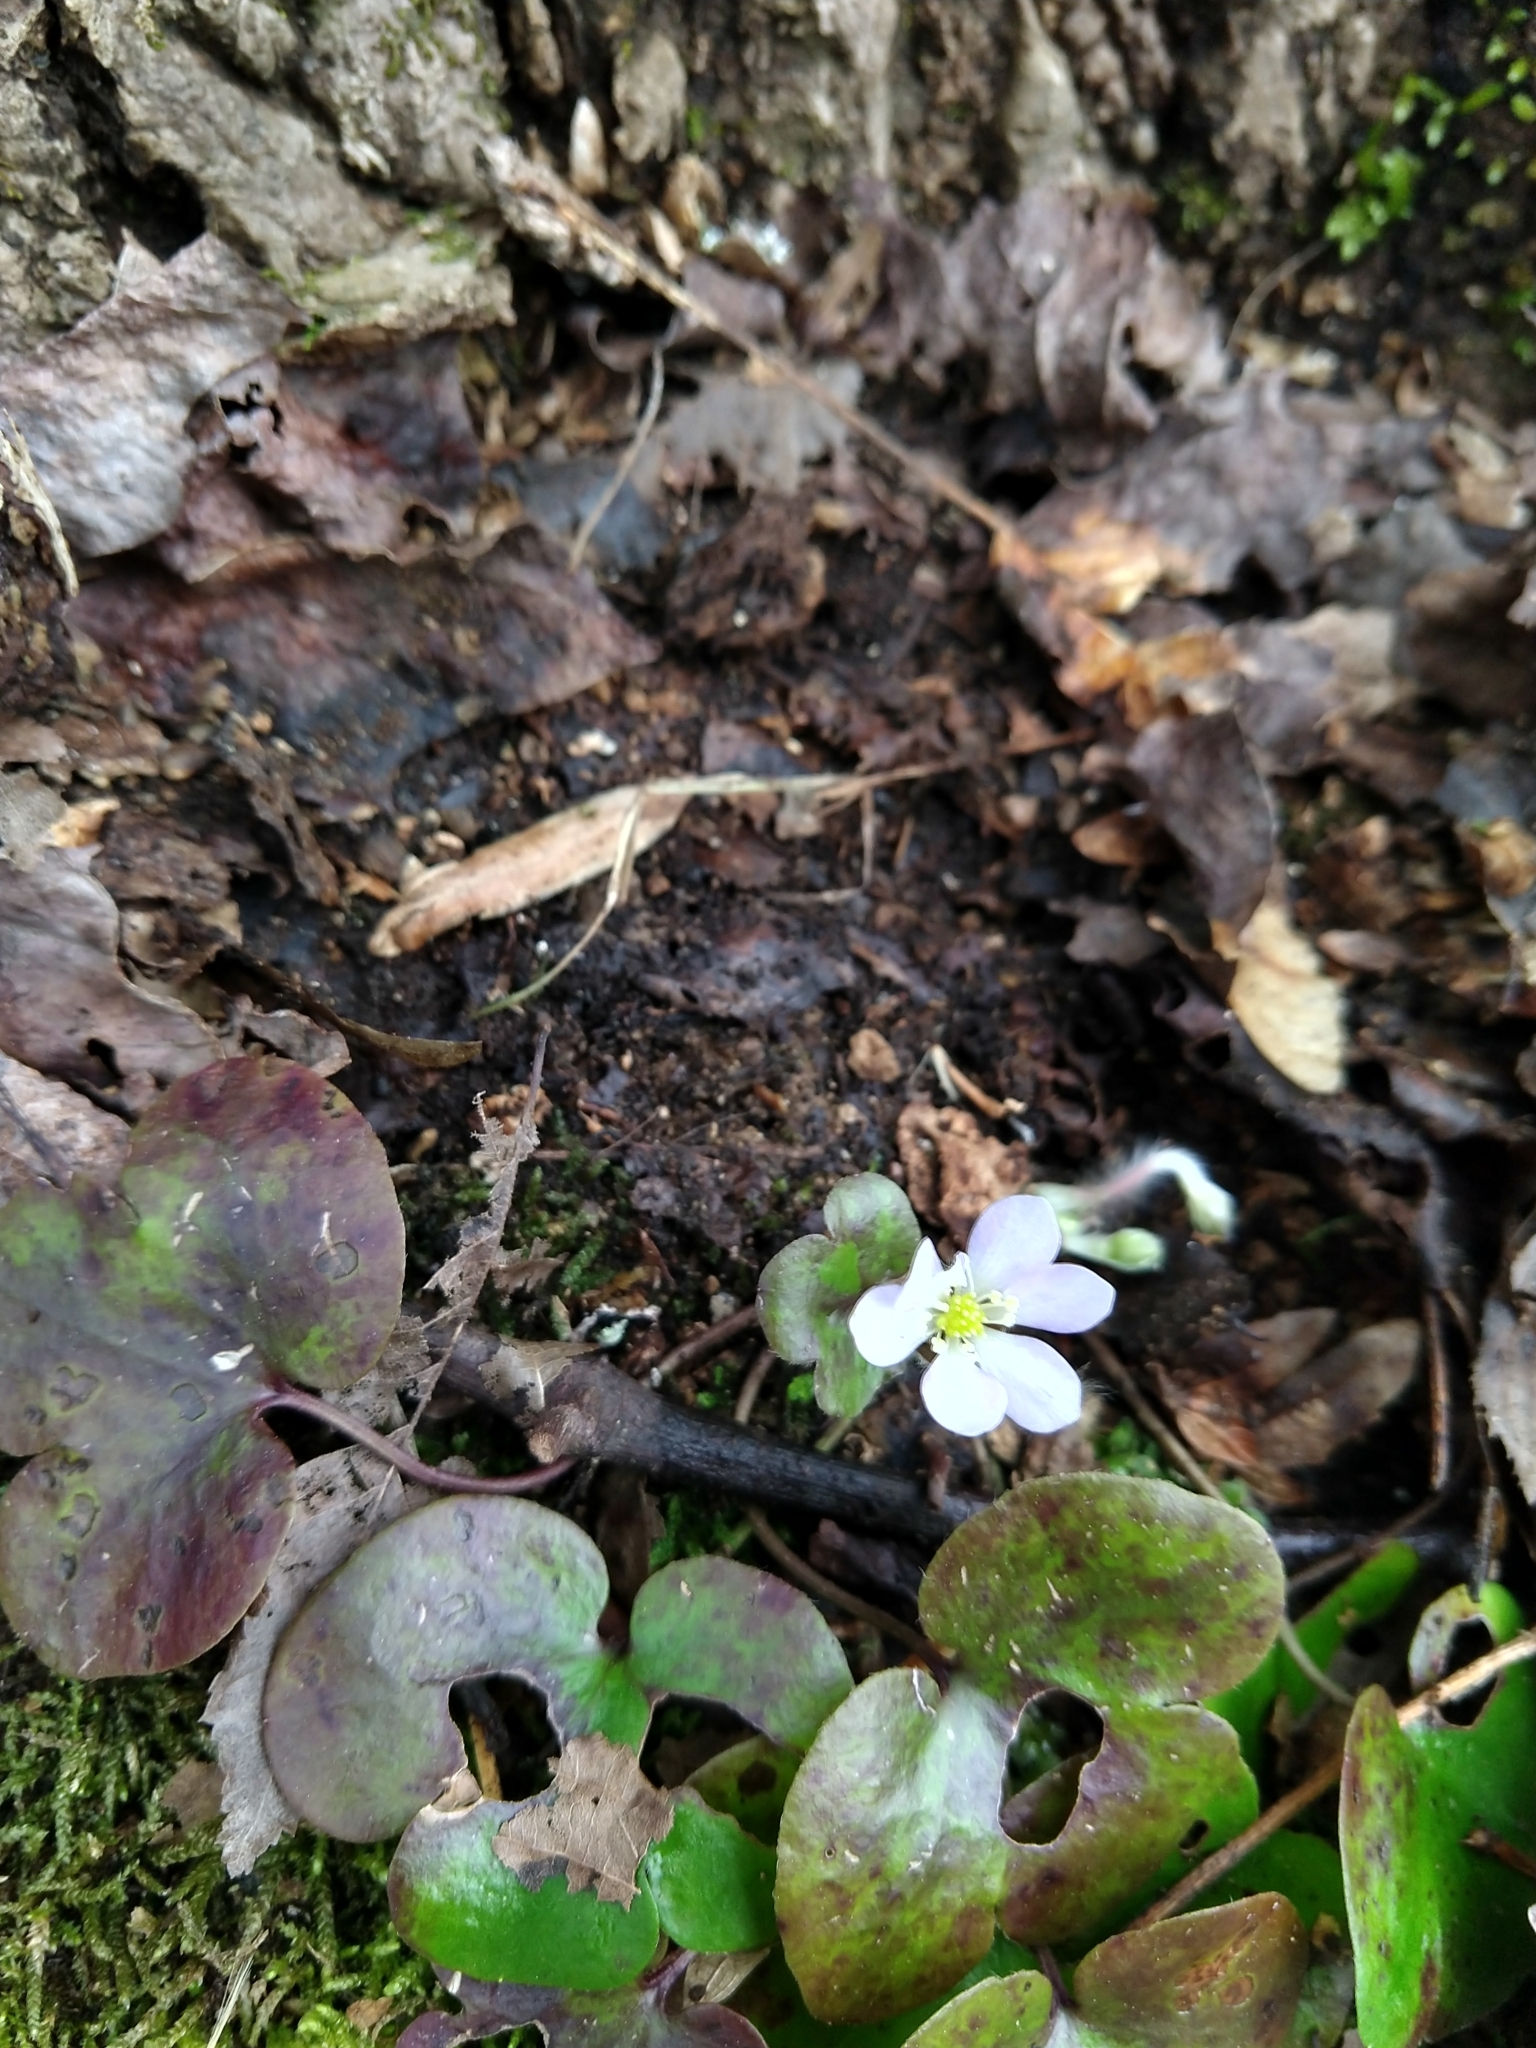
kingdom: Plantae
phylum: Tracheophyta
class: Magnoliopsida
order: Ranunculales
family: Ranunculaceae
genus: Hepatica
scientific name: Hepatica americana
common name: American hepatica
